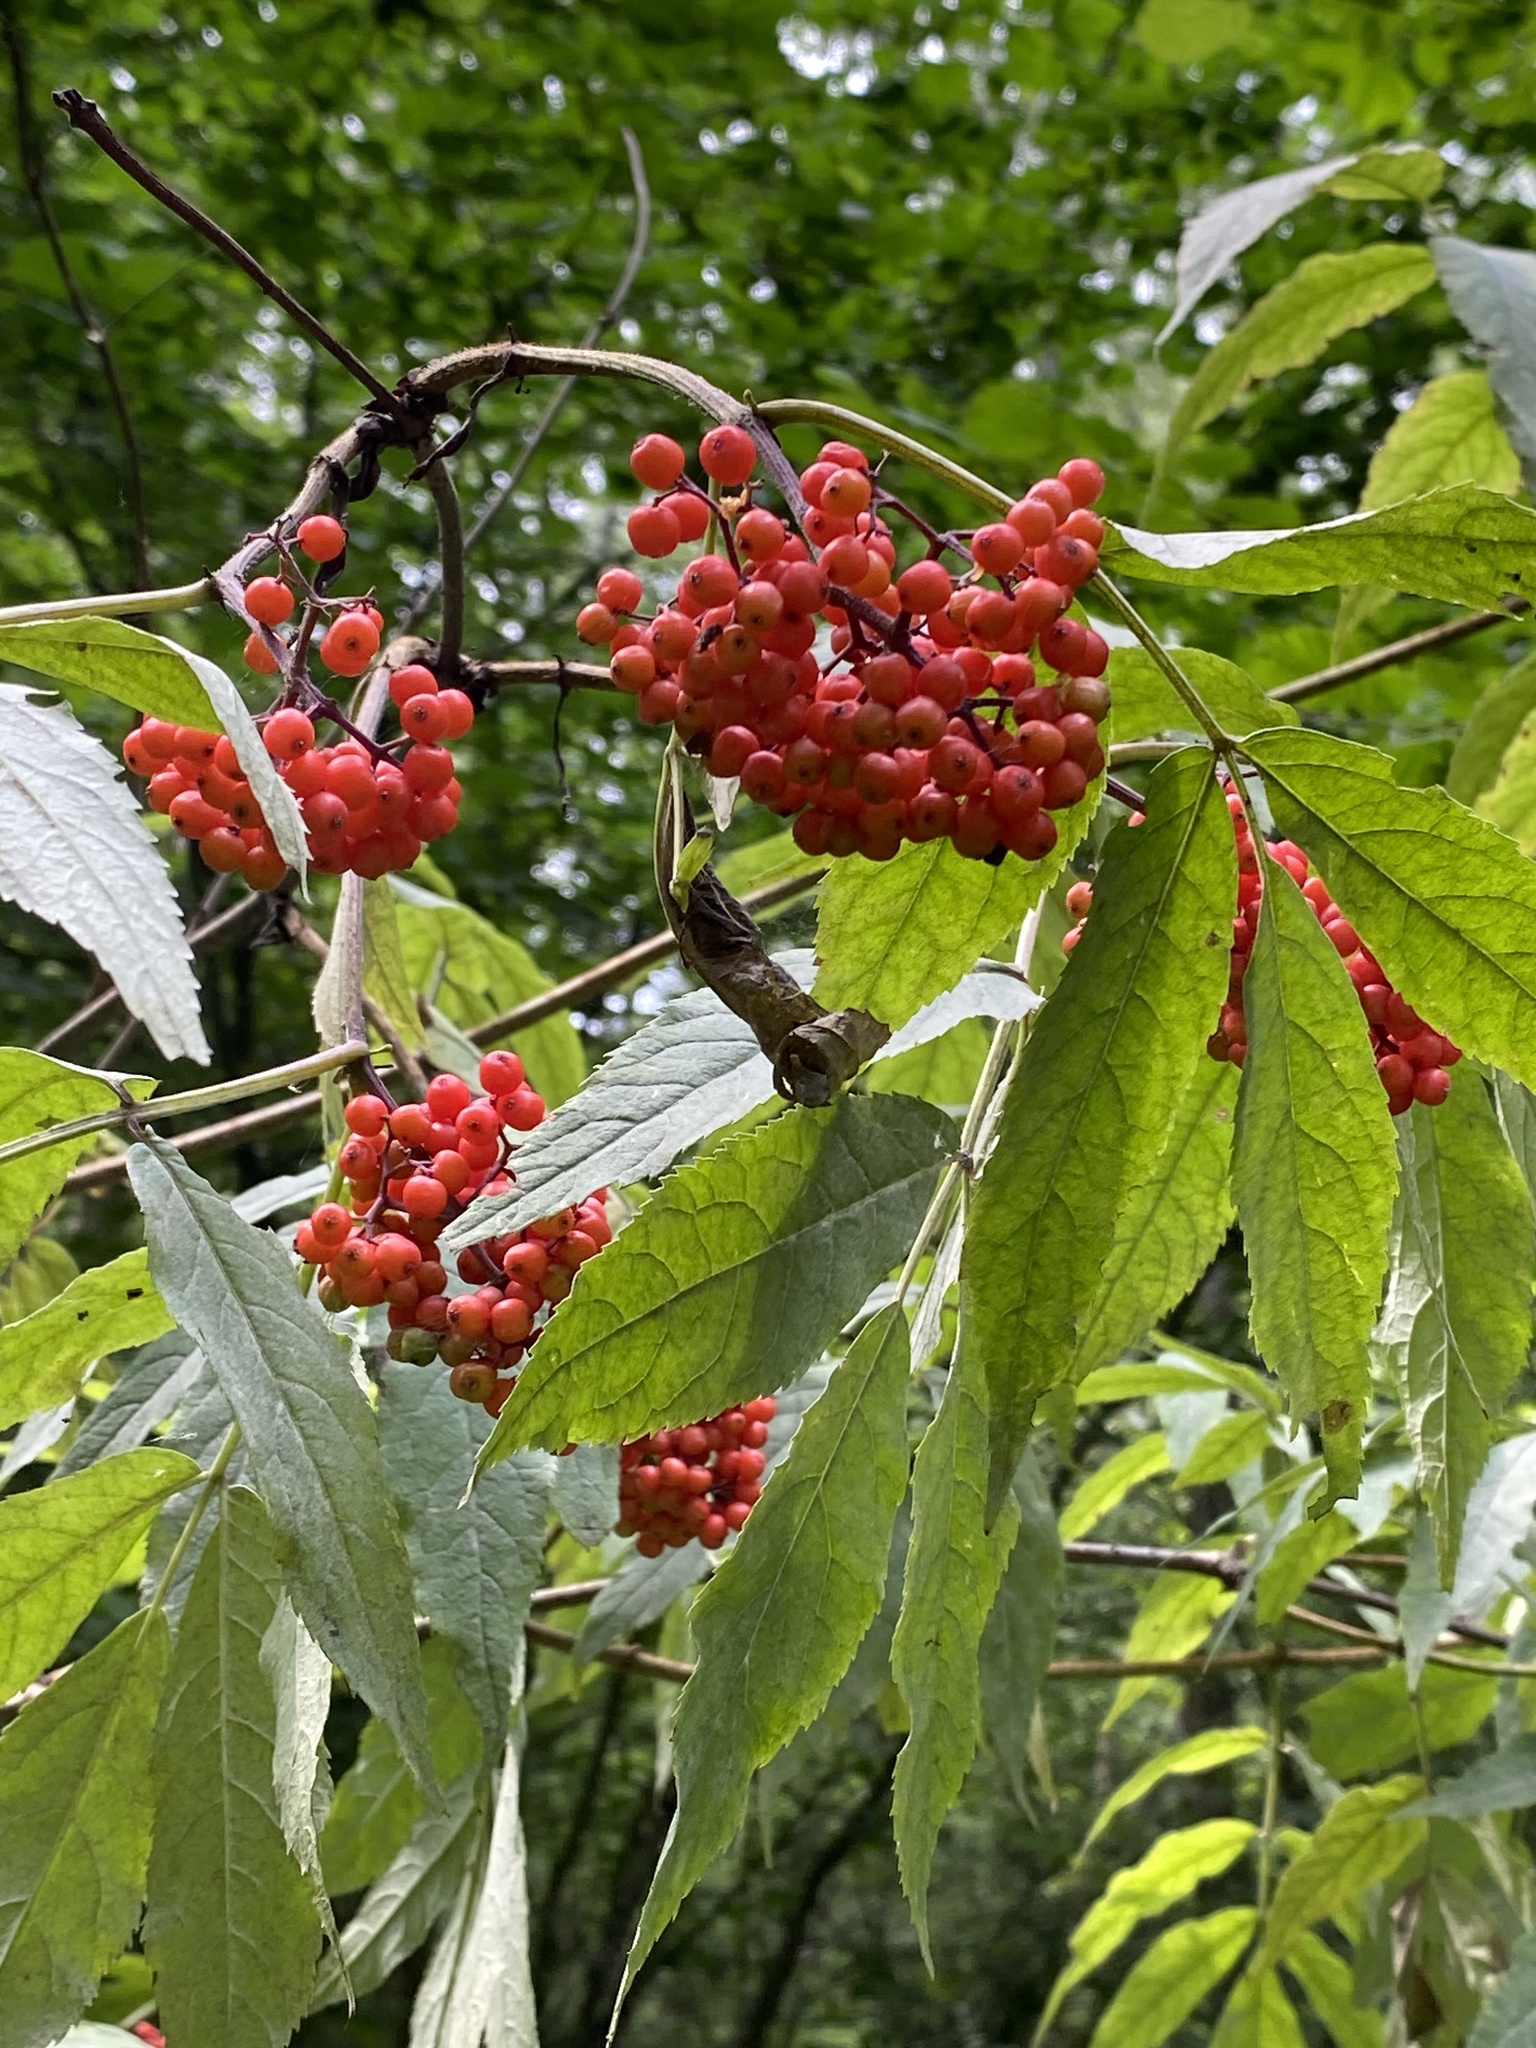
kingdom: Plantae
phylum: Tracheophyta
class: Magnoliopsida
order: Dipsacales
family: Viburnaceae
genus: Sambucus
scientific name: Sambucus racemosa
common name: Red-berried elder
